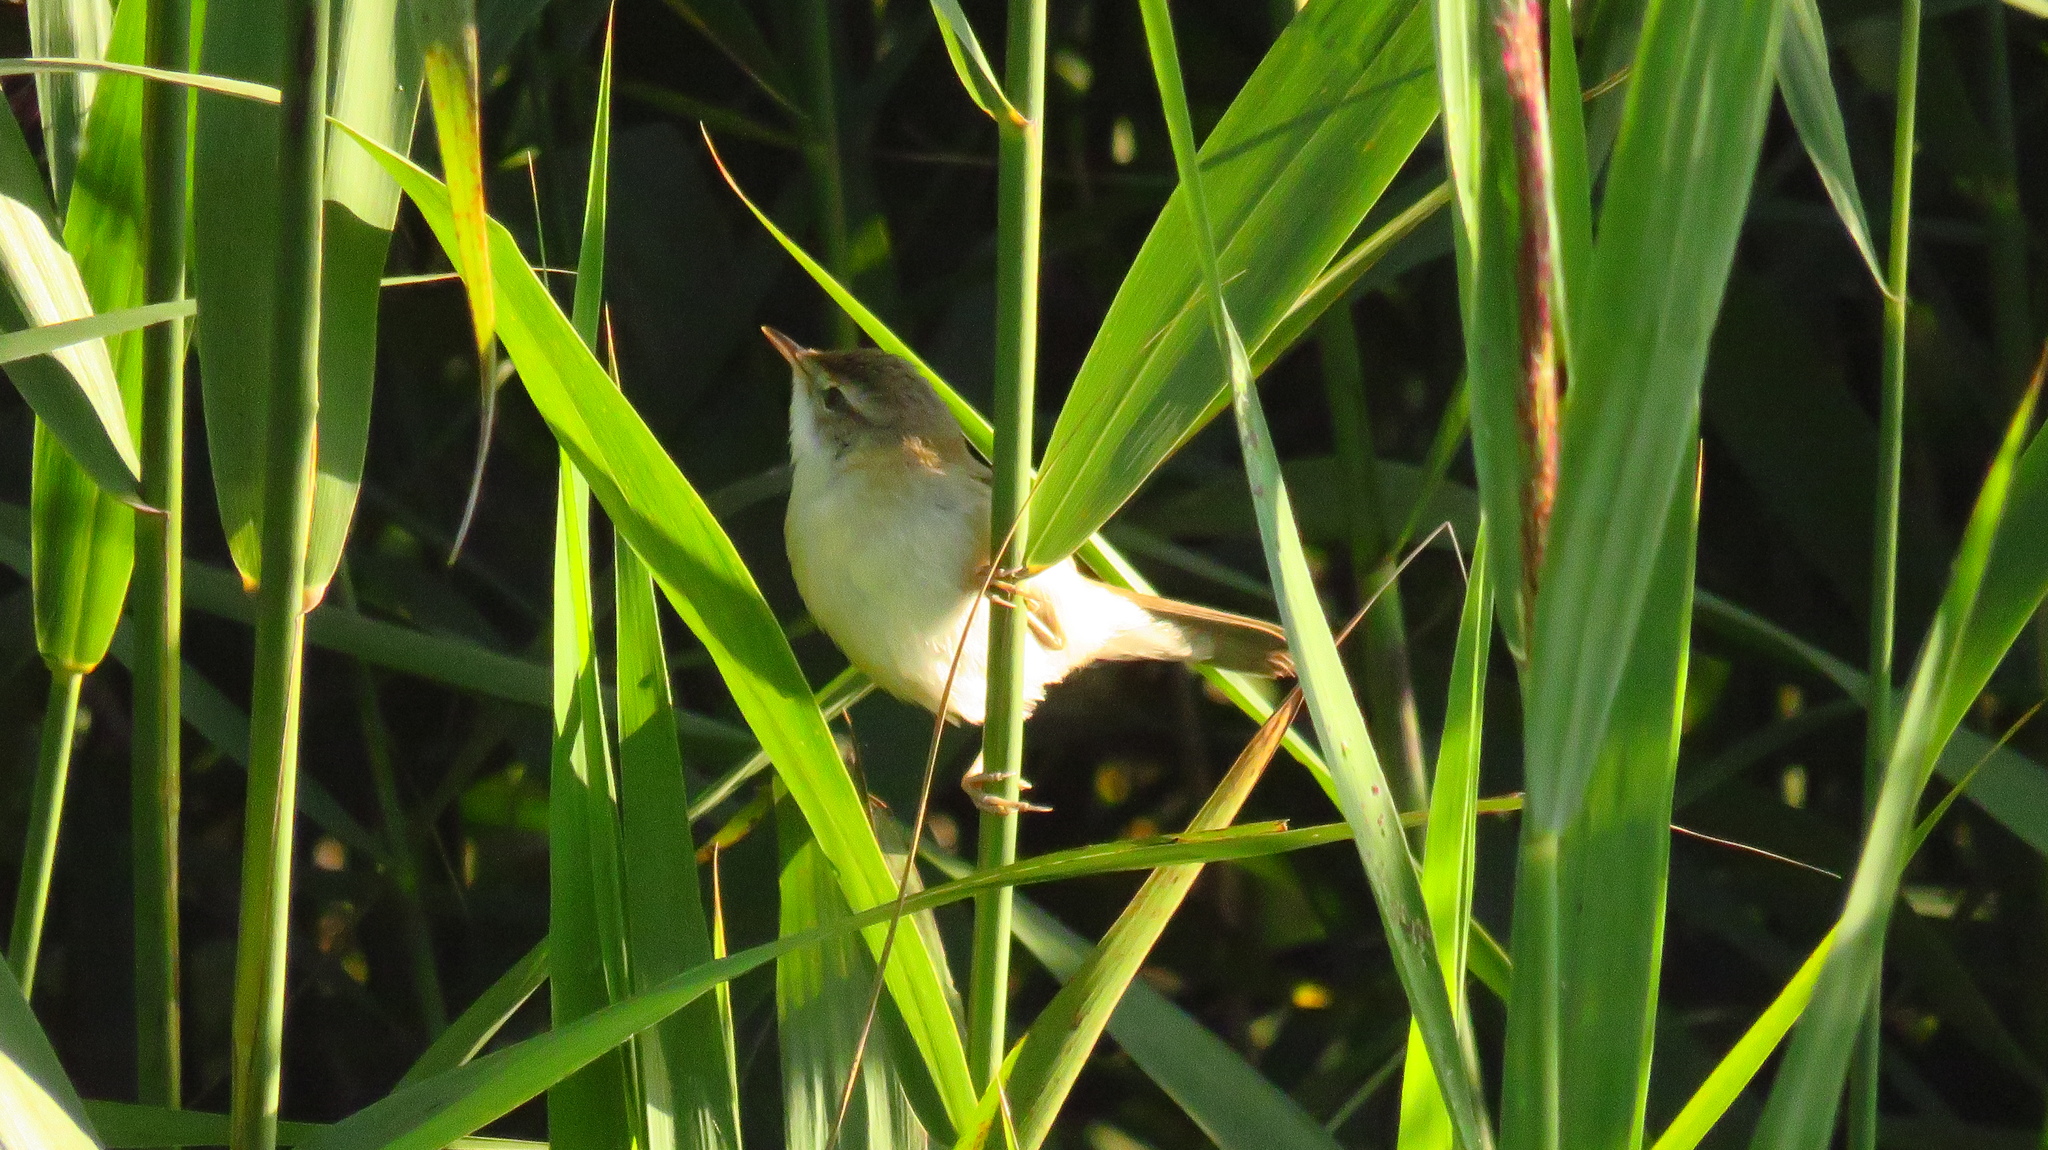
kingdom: Animalia
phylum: Chordata
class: Aves
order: Passeriformes
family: Acrocephalidae
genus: Acrocephalus
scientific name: Acrocephalus agricola
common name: Paddyfield warbler
